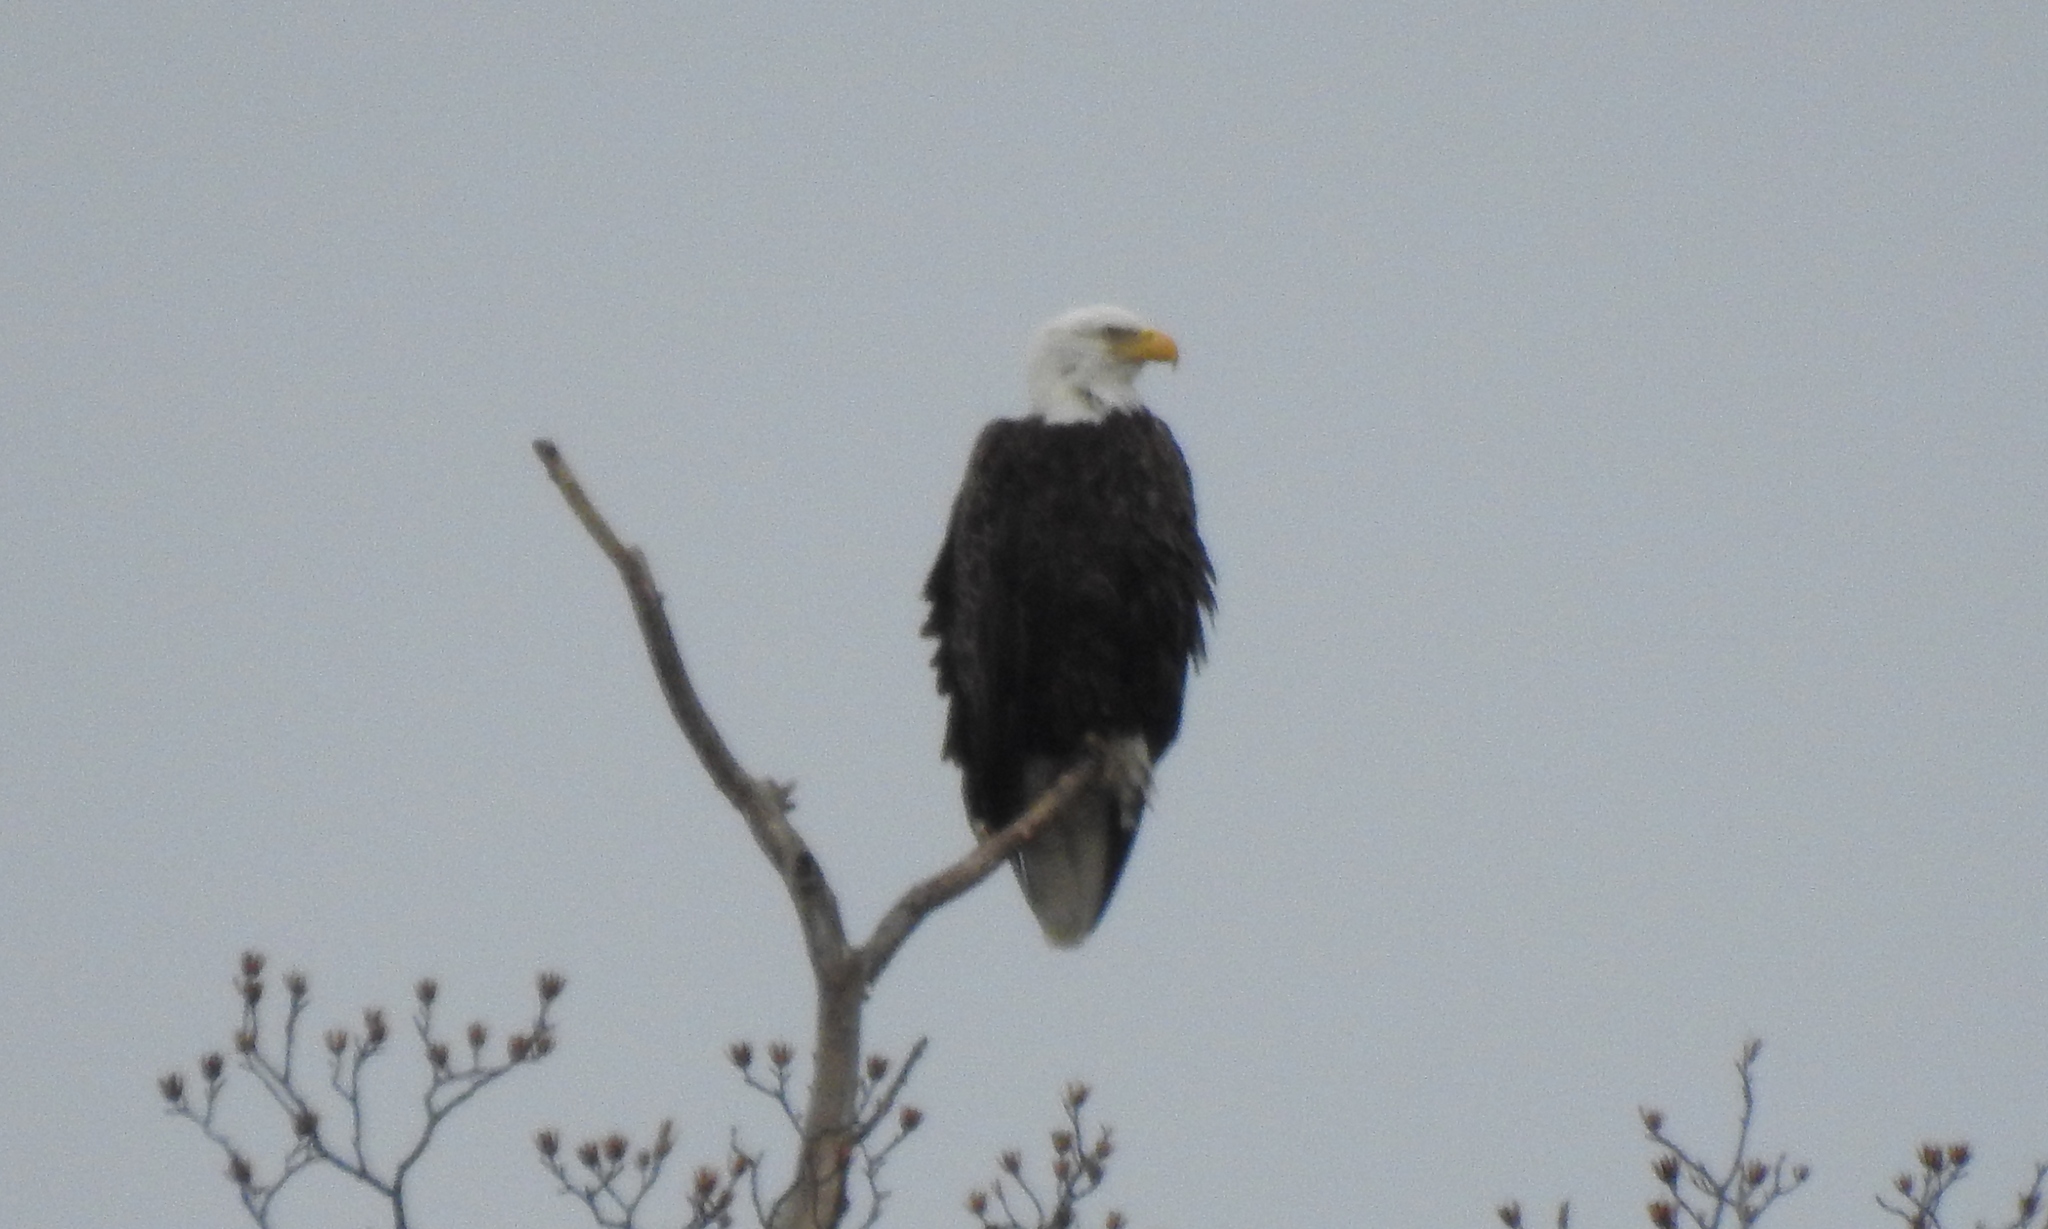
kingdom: Animalia
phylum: Chordata
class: Aves
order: Accipitriformes
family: Accipitridae
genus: Haliaeetus
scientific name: Haliaeetus leucocephalus
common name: Bald eagle
